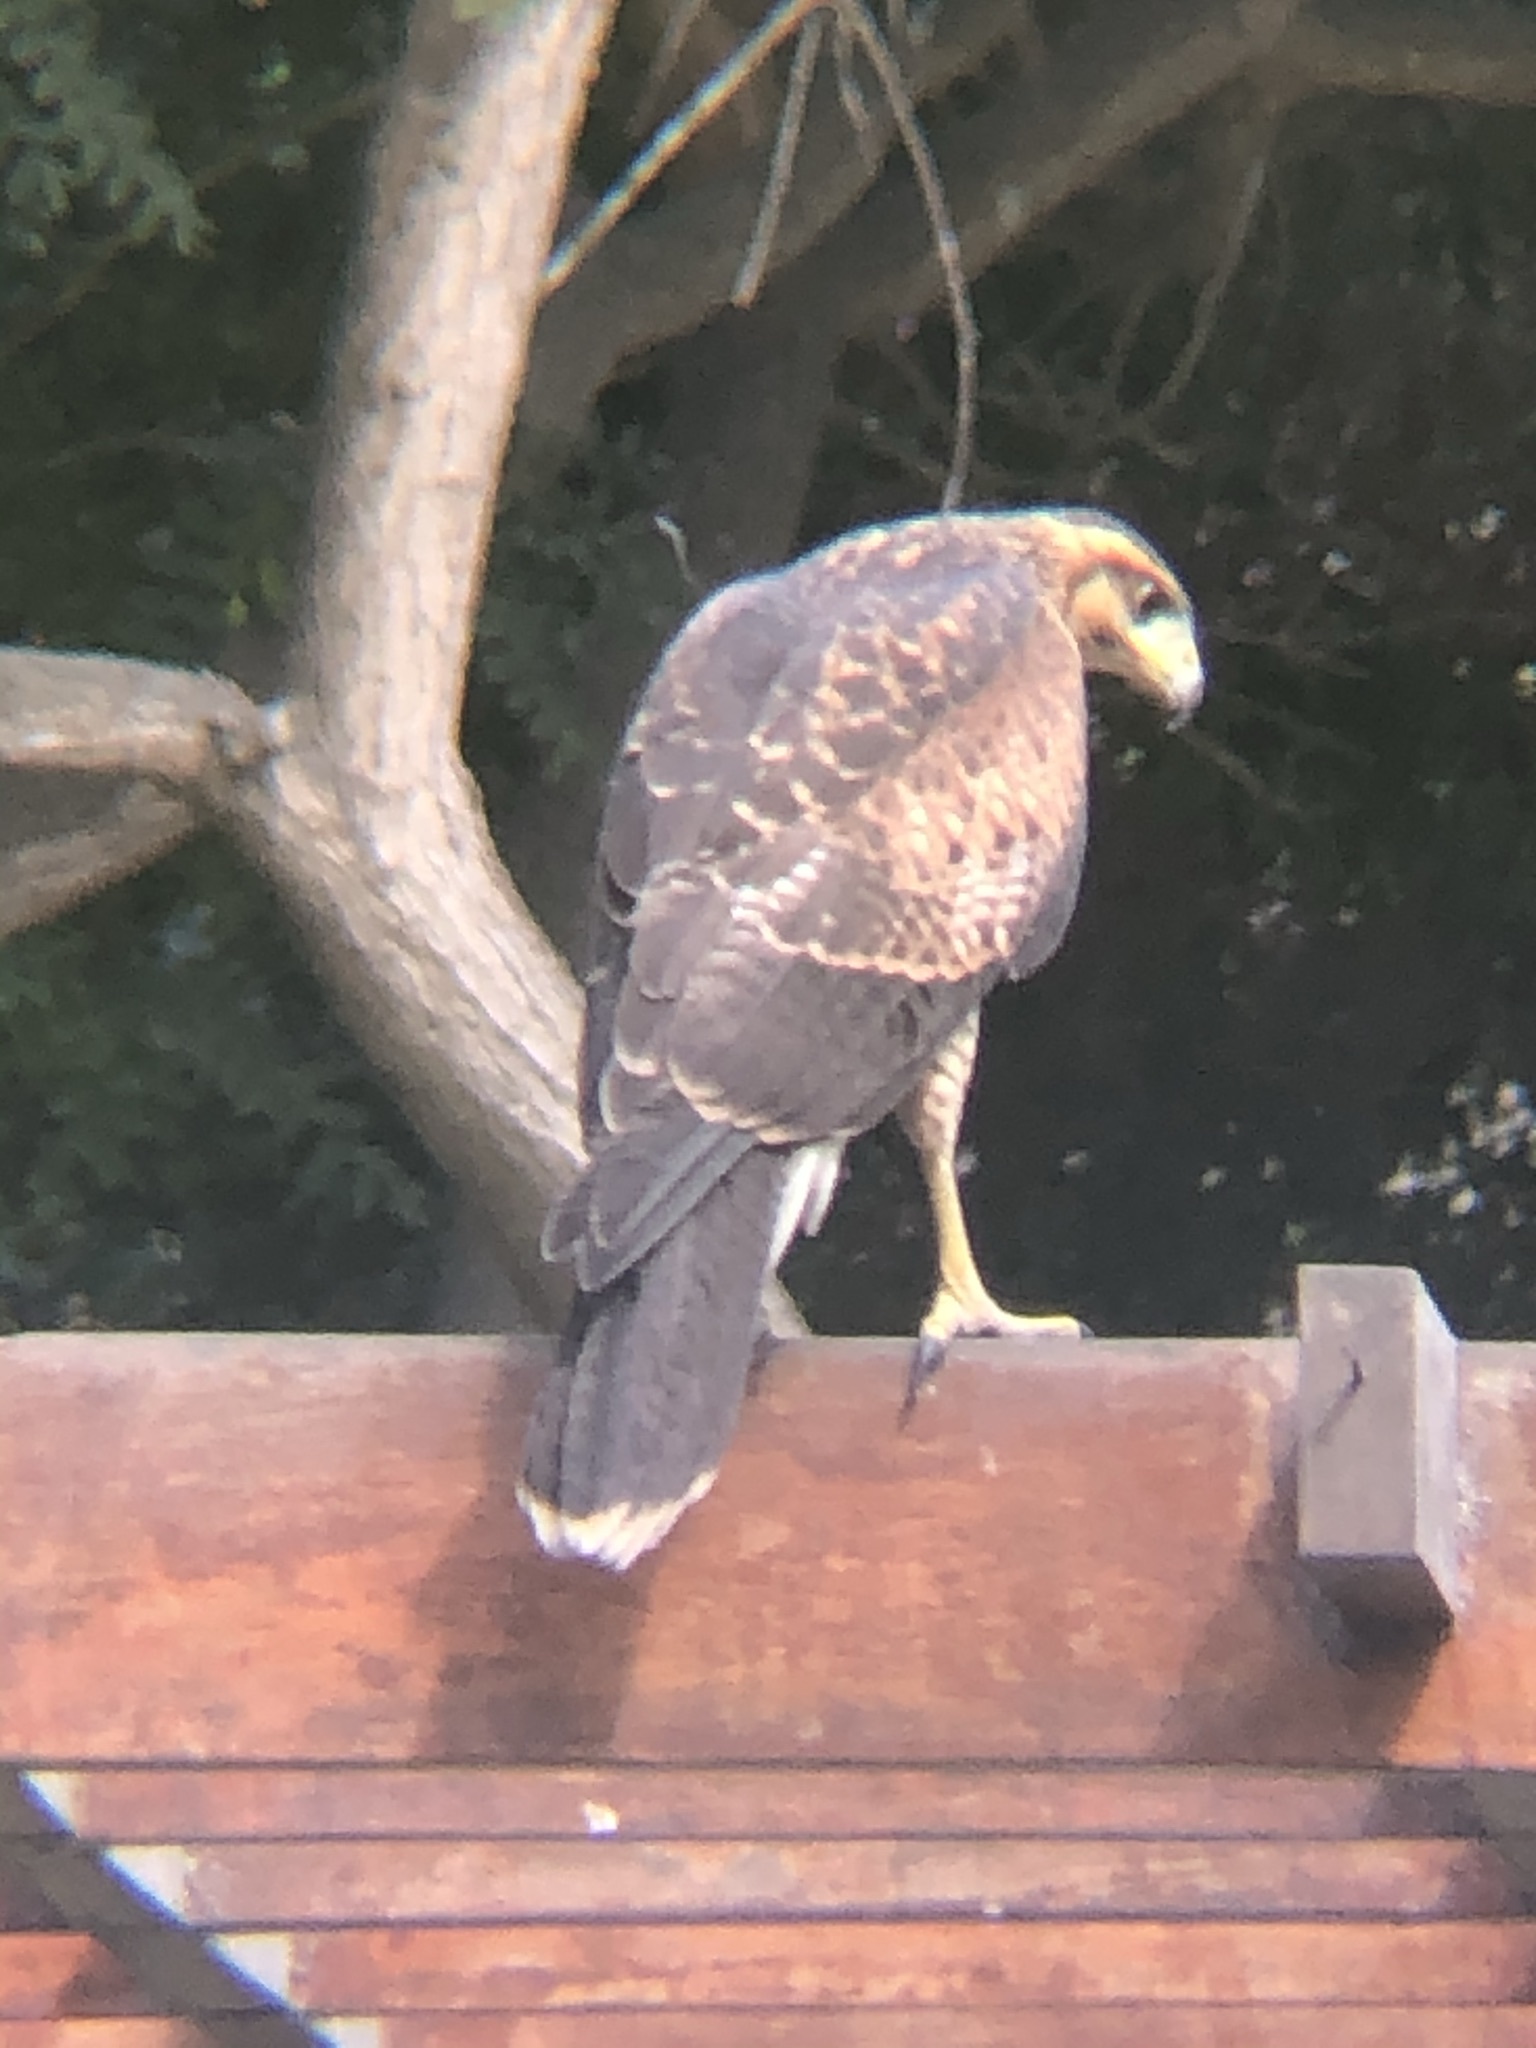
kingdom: Animalia
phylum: Chordata
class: Aves
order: Accipitriformes
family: Accipitridae
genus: Parabuteo
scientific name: Parabuteo unicinctus
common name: Harris's hawk
